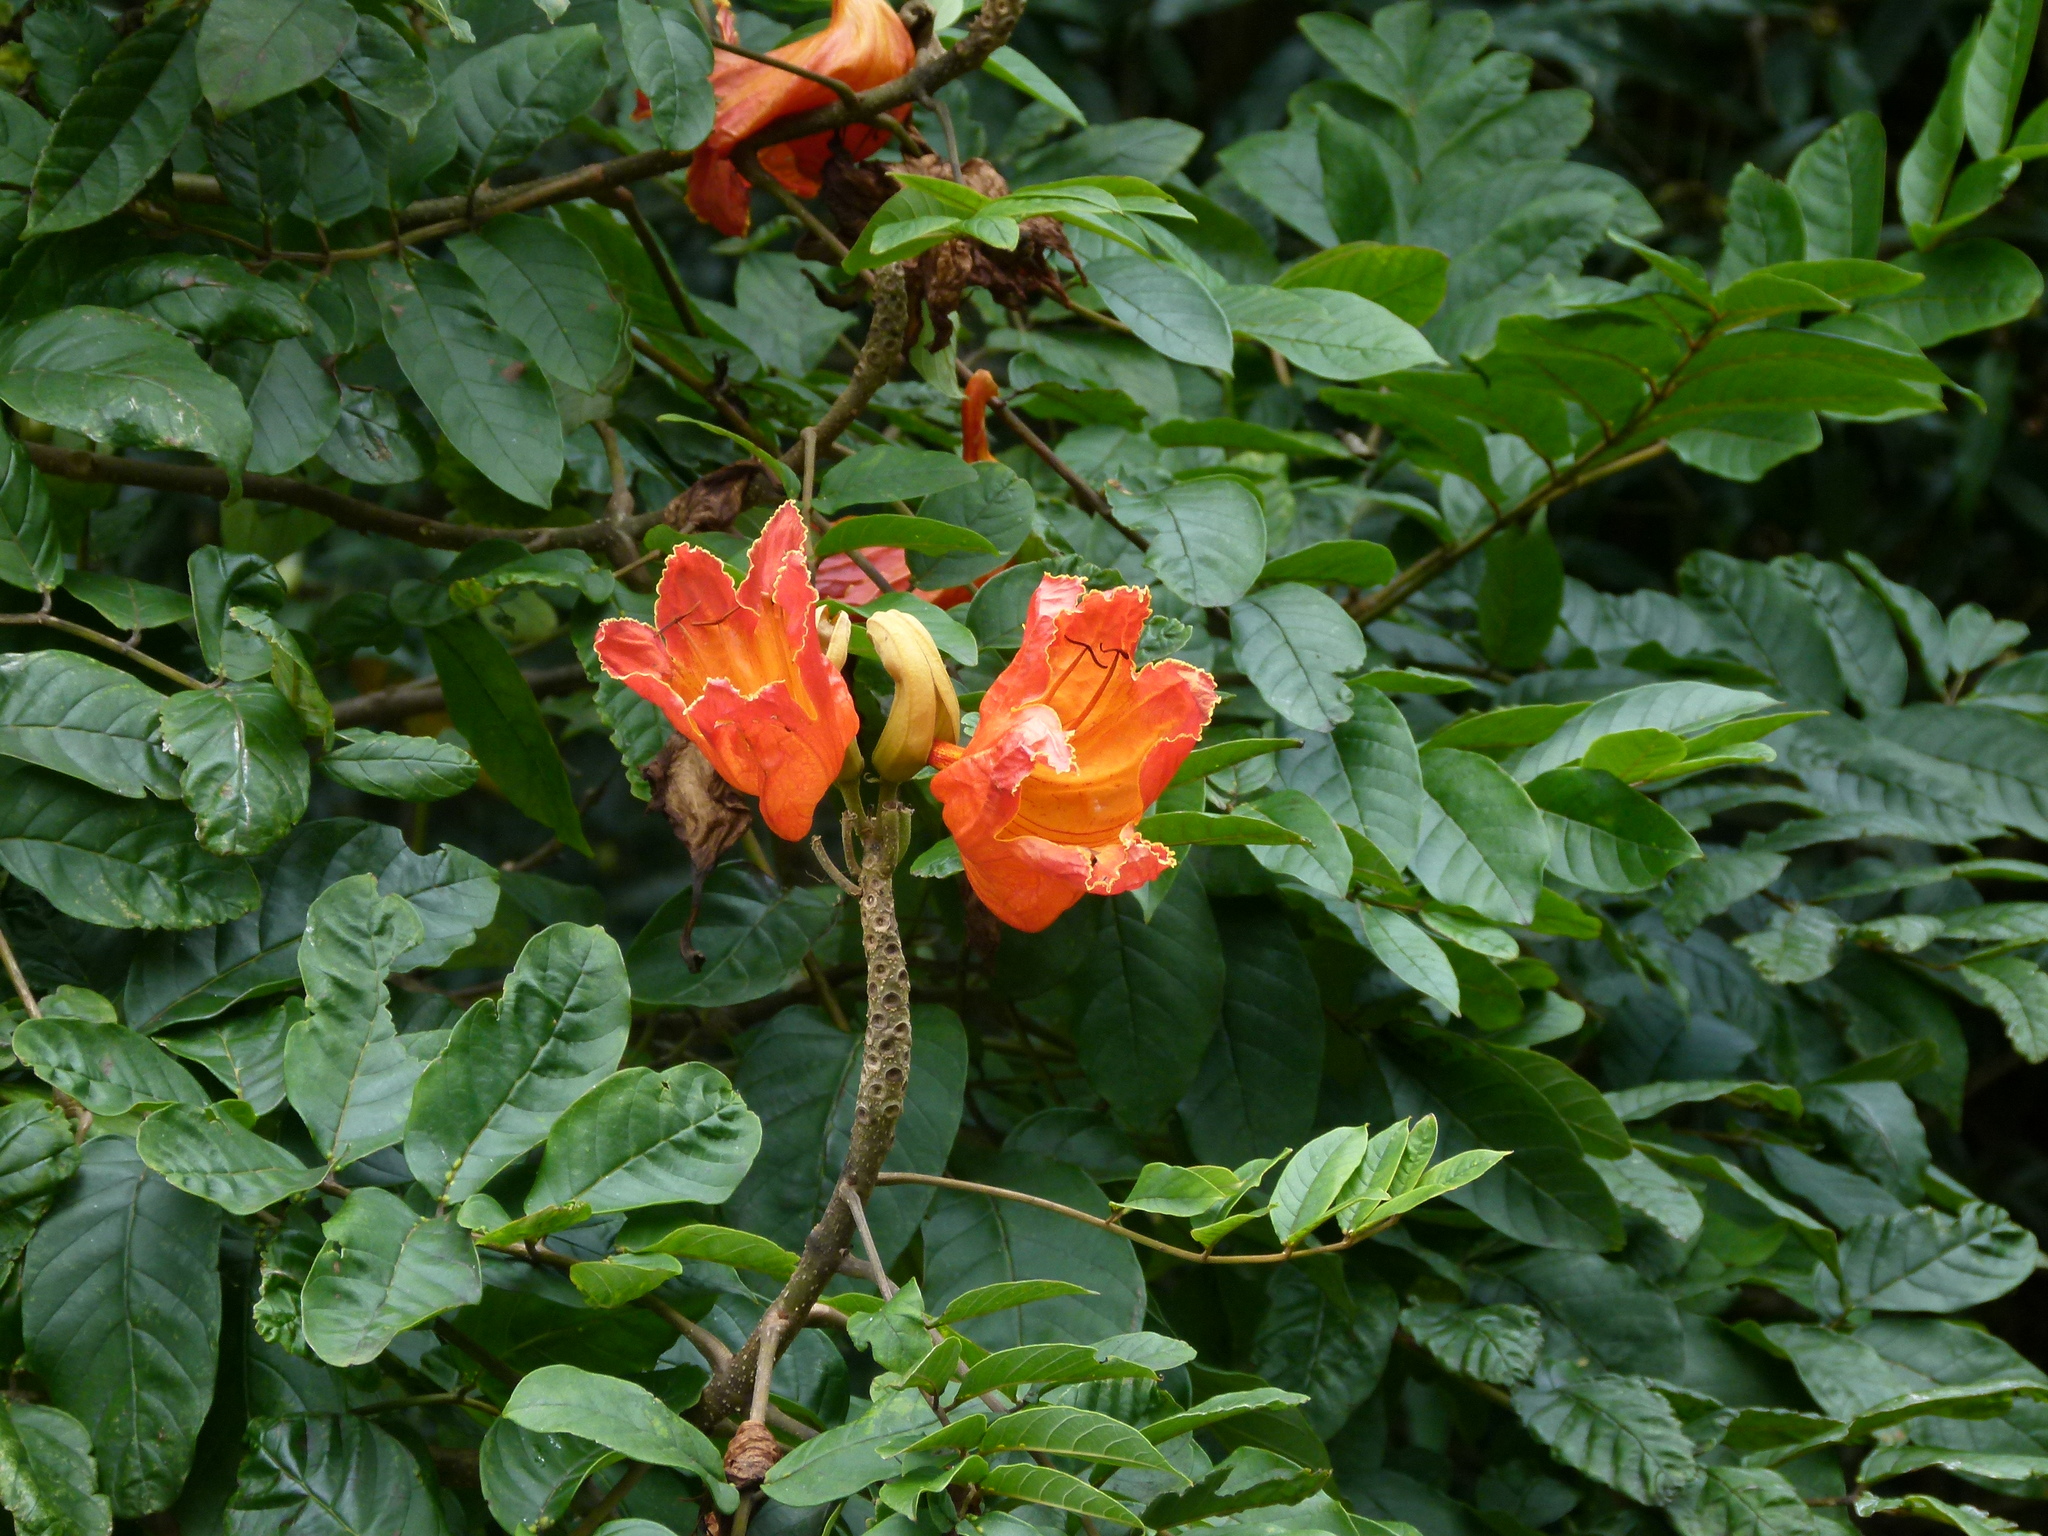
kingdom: Plantae
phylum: Tracheophyta
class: Magnoliopsida
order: Lamiales
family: Bignoniaceae
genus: Spathodea
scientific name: Spathodea campanulata
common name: African tuliptree
